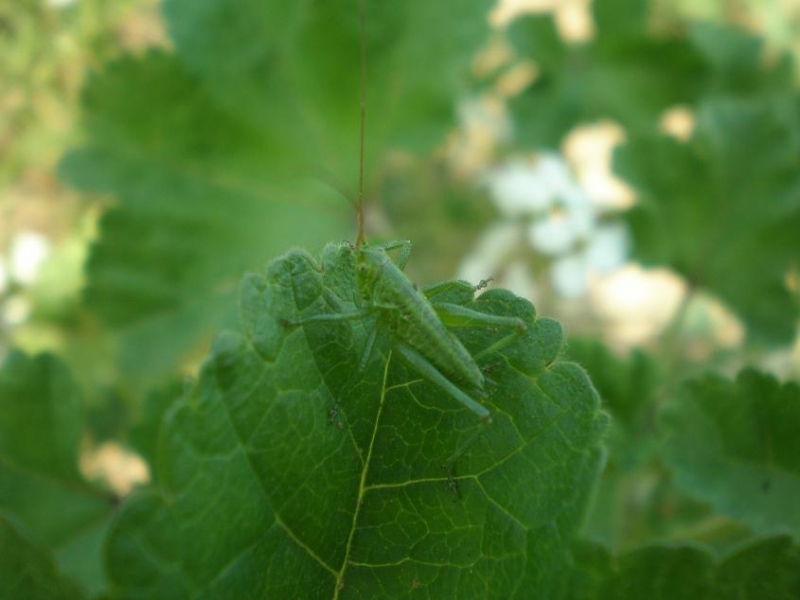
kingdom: Animalia
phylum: Arthropoda
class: Insecta
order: Orthoptera
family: Tettigoniidae
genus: Tettigonia
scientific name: Tettigonia viridissima
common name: Great green bush-cricket
